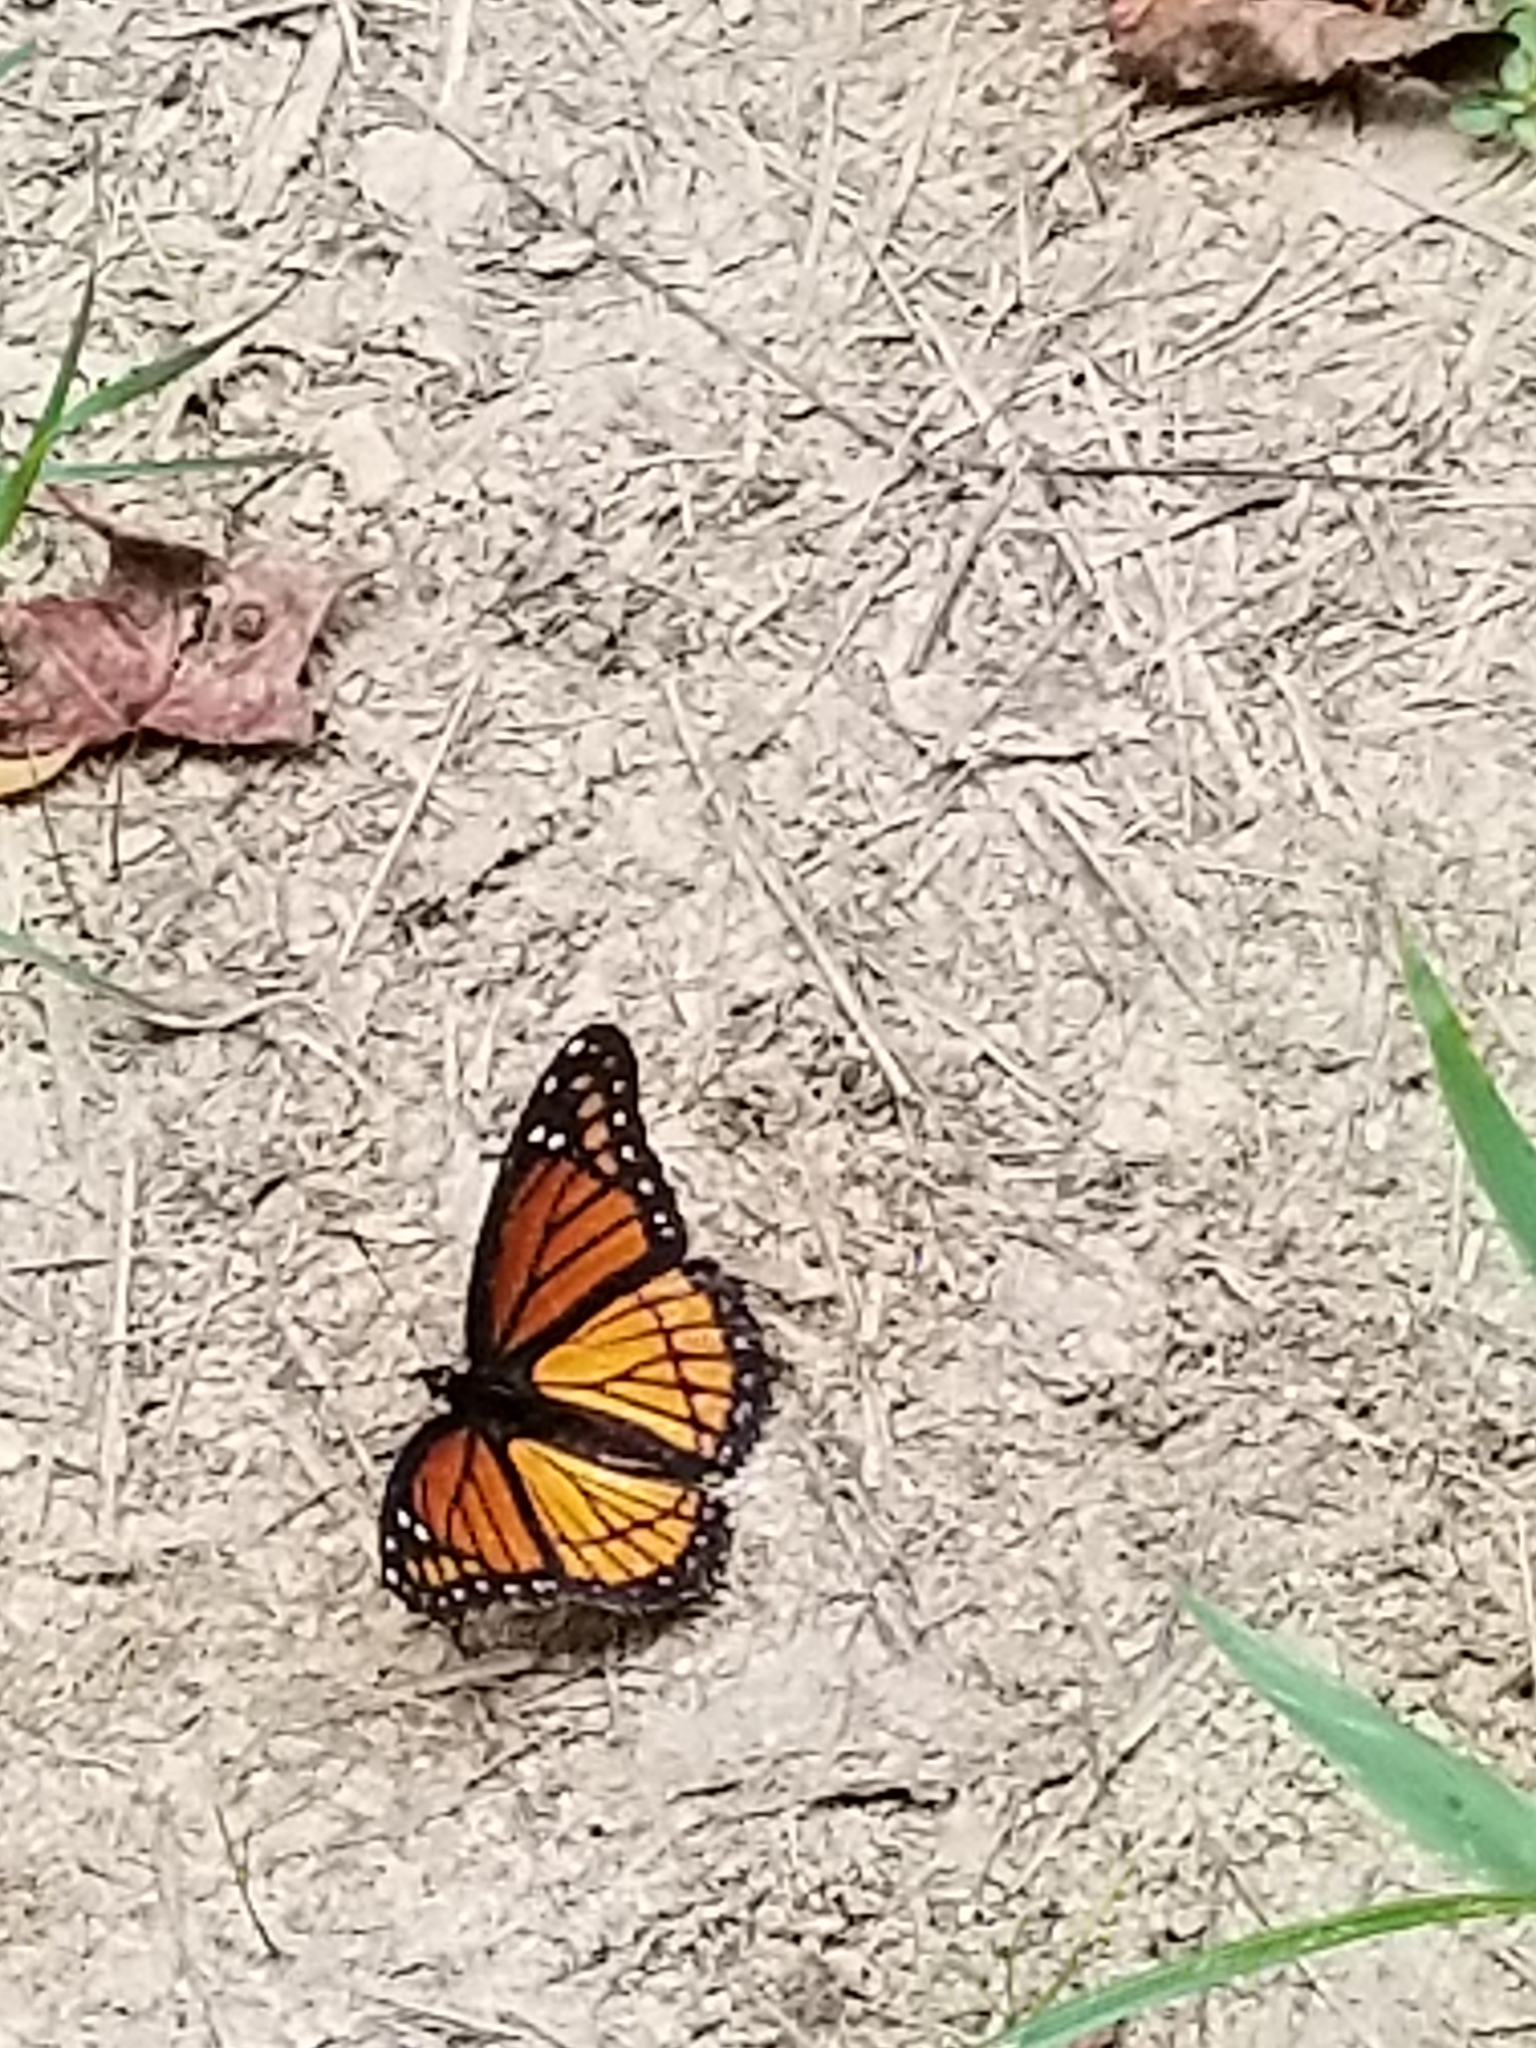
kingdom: Animalia
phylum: Arthropoda
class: Insecta
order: Lepidoptera
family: Nymphalidae
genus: Limenitis
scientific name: Limenitis archippus
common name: Viceroy
